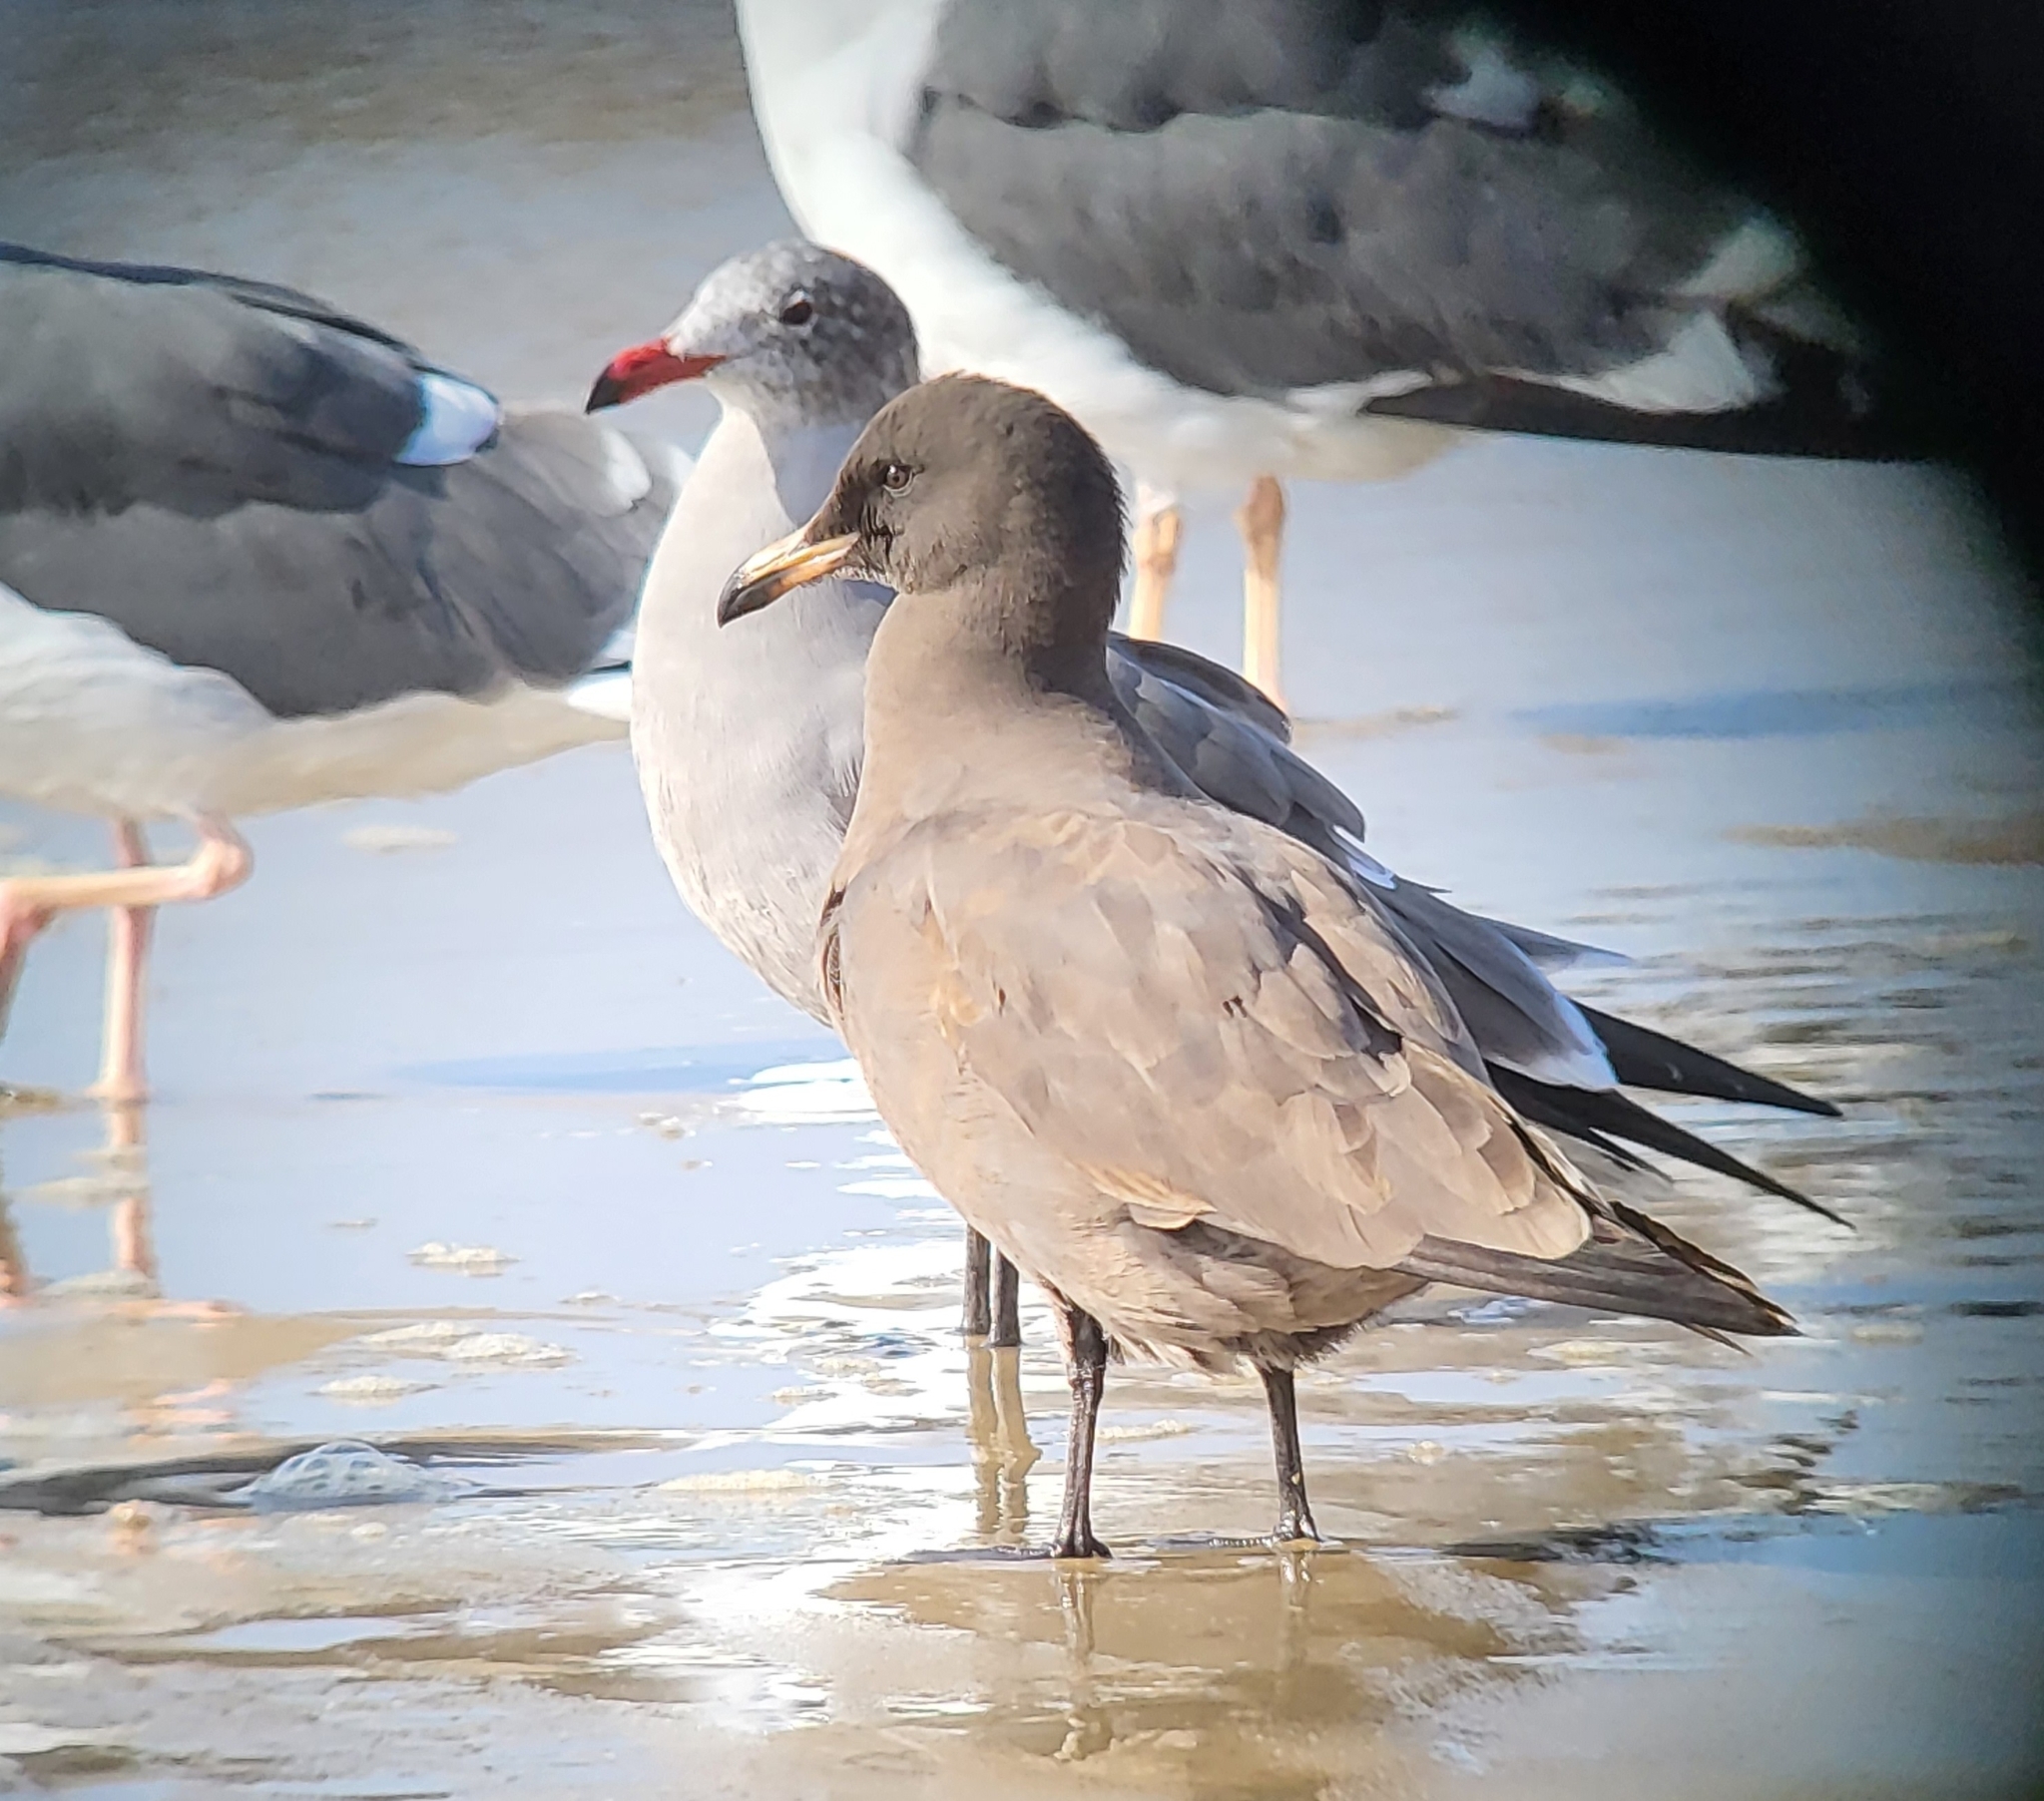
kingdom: Animalia
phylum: Chordata
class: Aves
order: Charadriiformes
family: Laridae
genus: Larus
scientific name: Larus heermanni
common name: Heermann's gull
